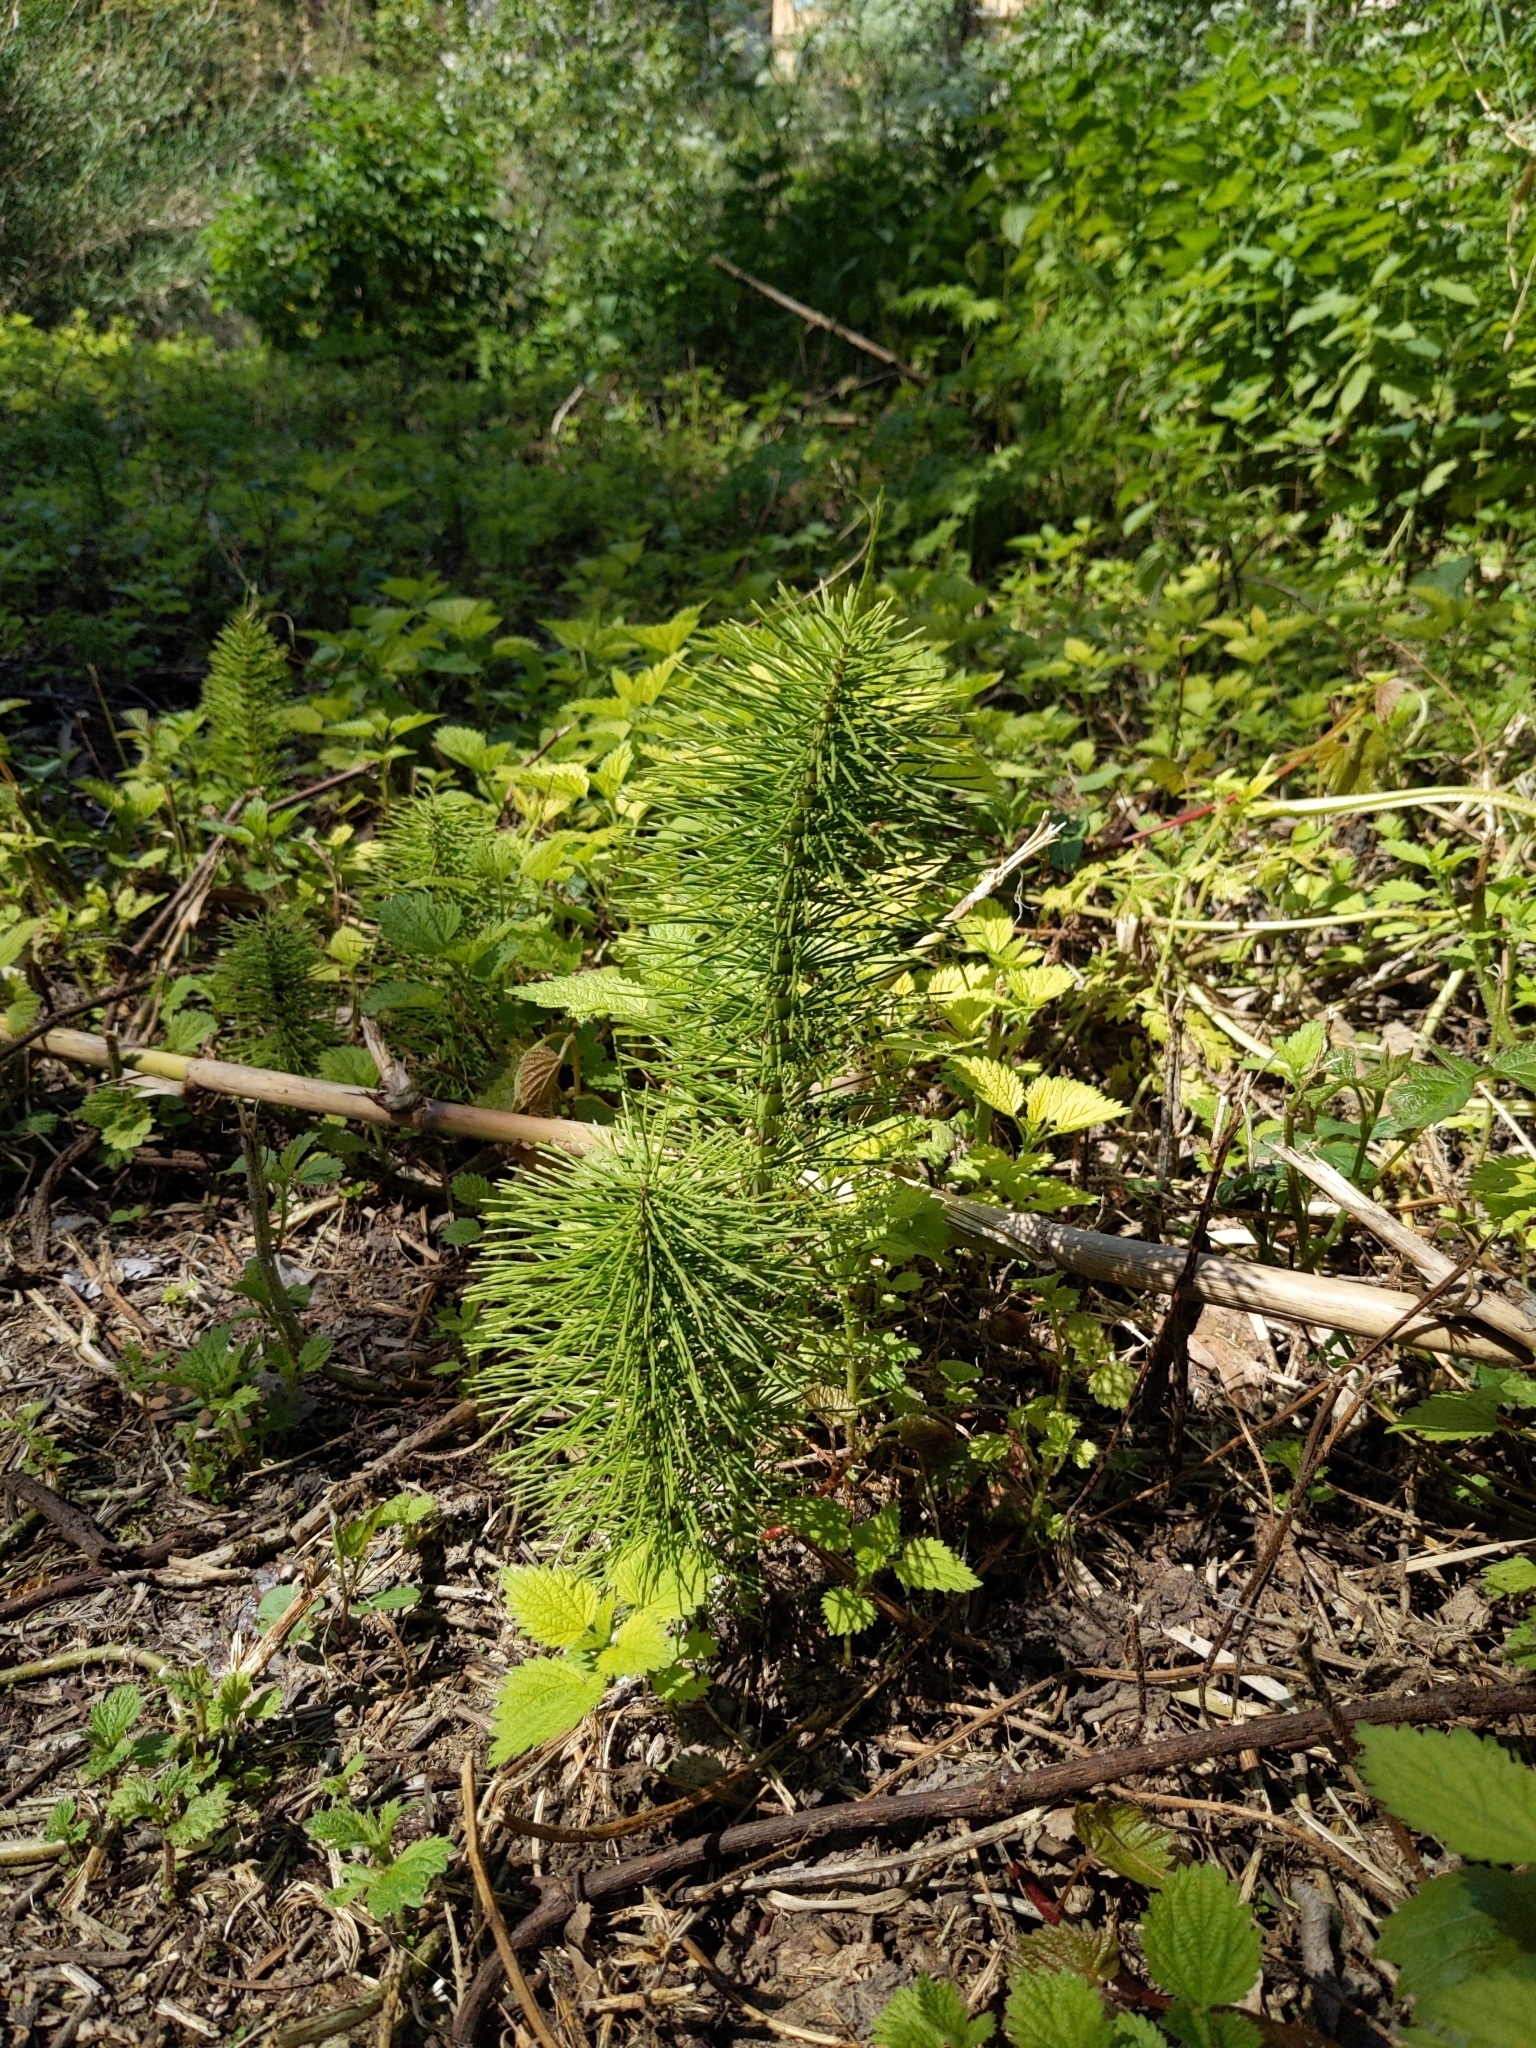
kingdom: Plantae
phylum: Tracheophyta
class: Polypodiopsida
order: Equisetales
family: Equisetaceae
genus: Equisetum
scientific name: Equisetum telmateia
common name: Great horsetail
